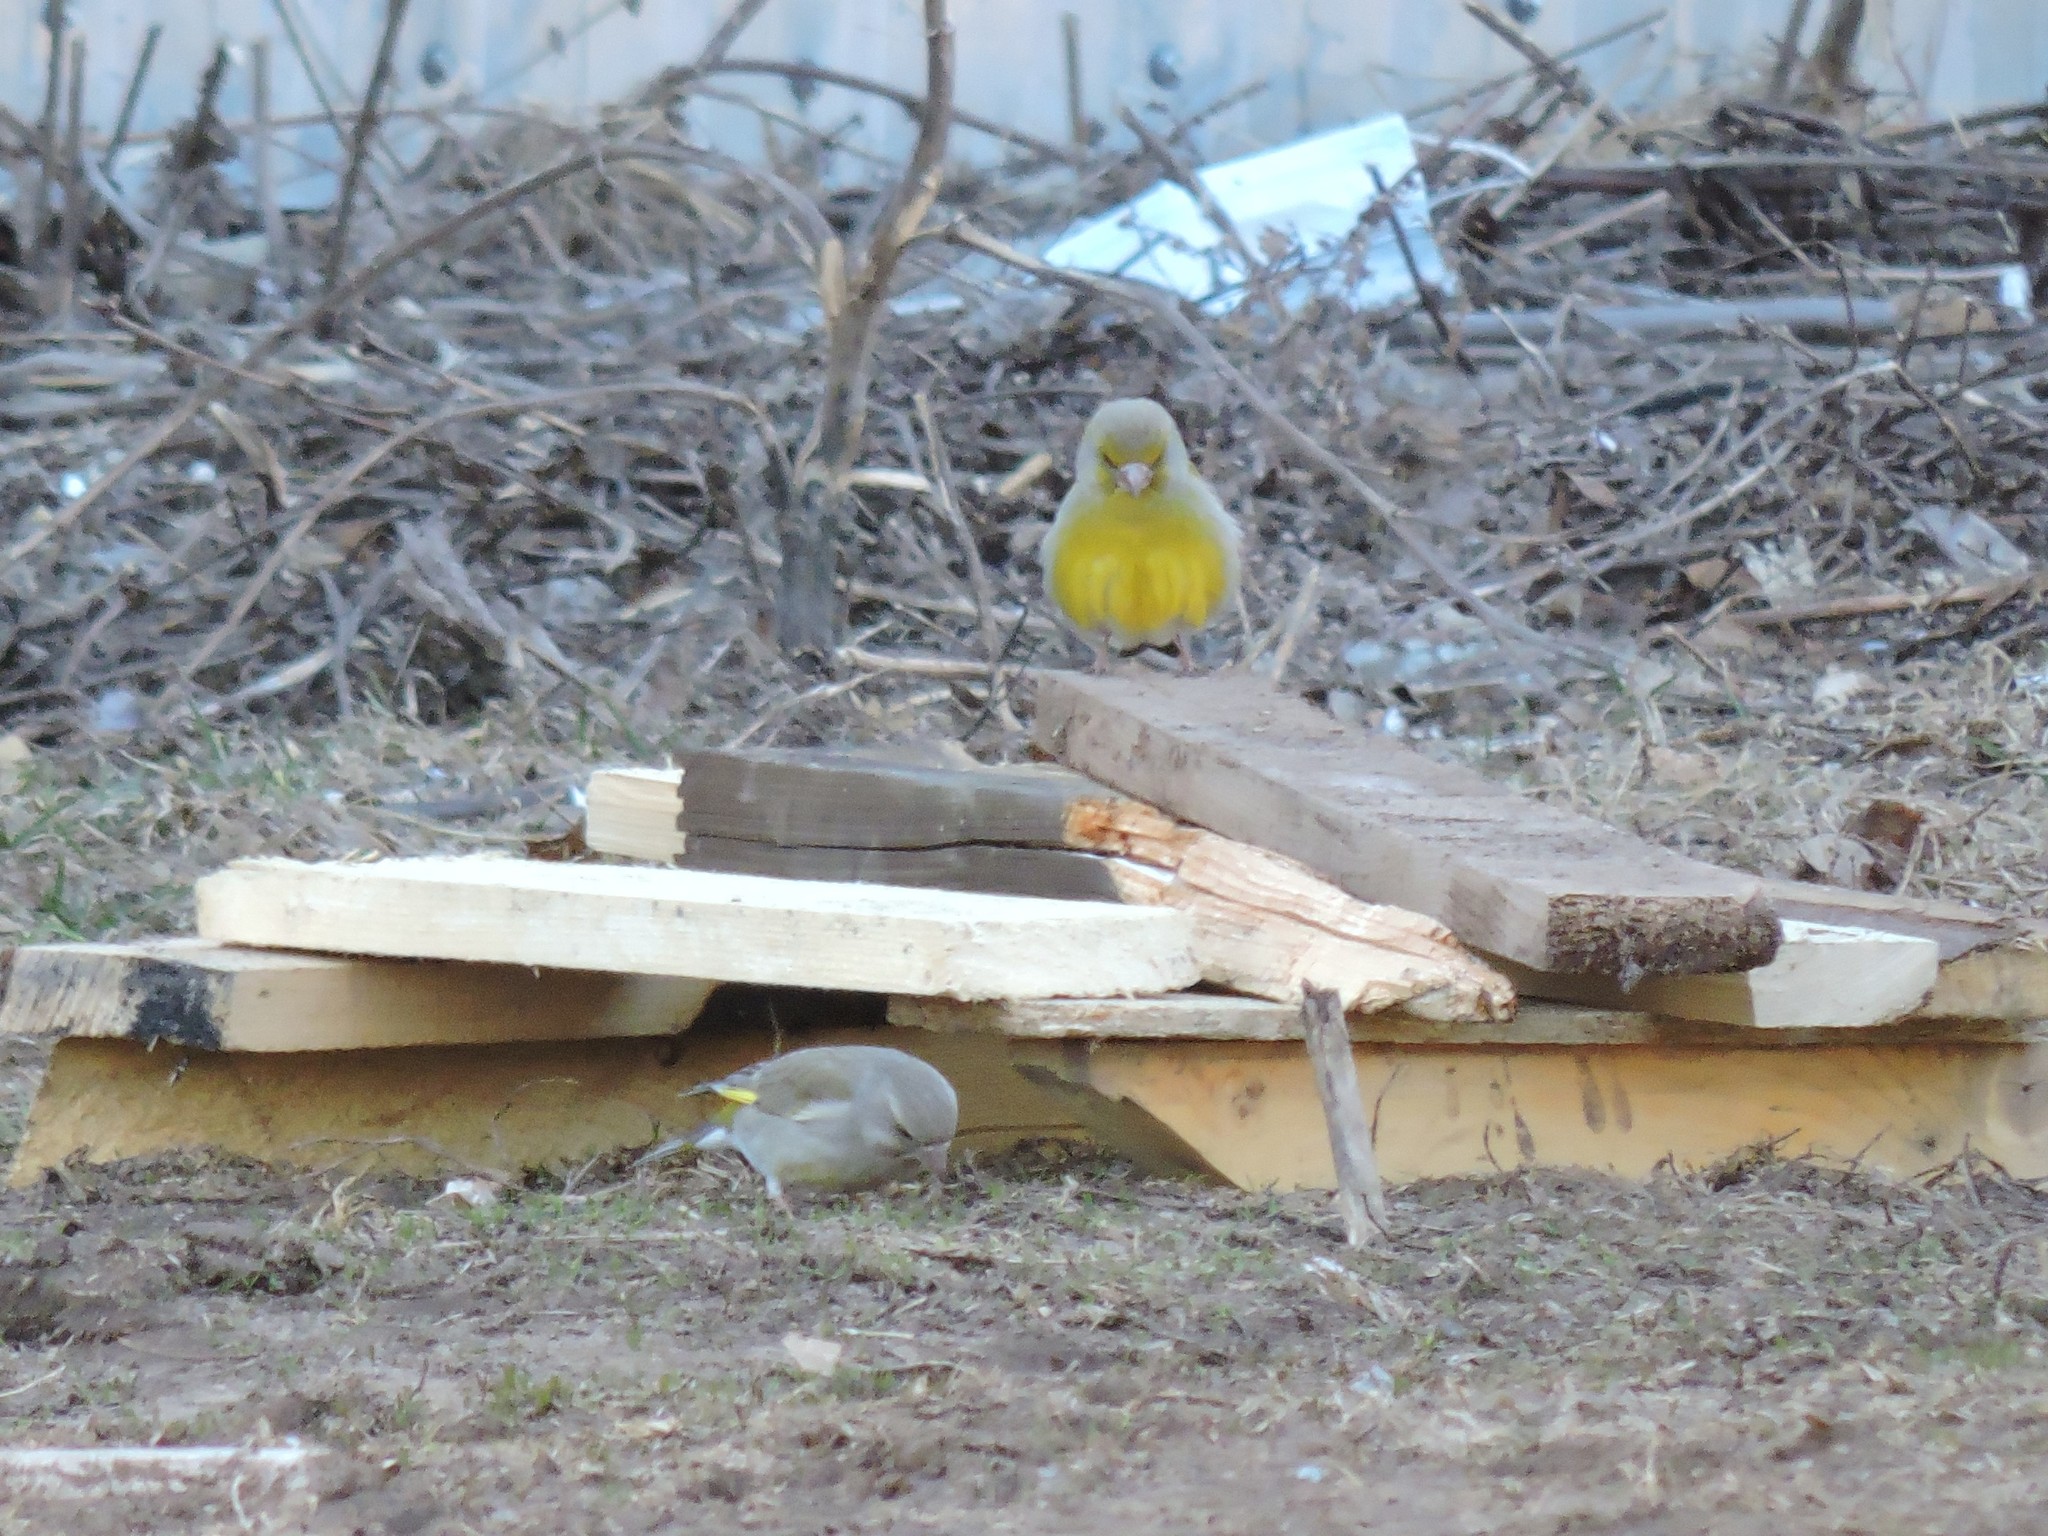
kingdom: Plantae
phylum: Tracheophyta
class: Liliopsida
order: Poales
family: Poaceae
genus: Chloris
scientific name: Chloris chloris
